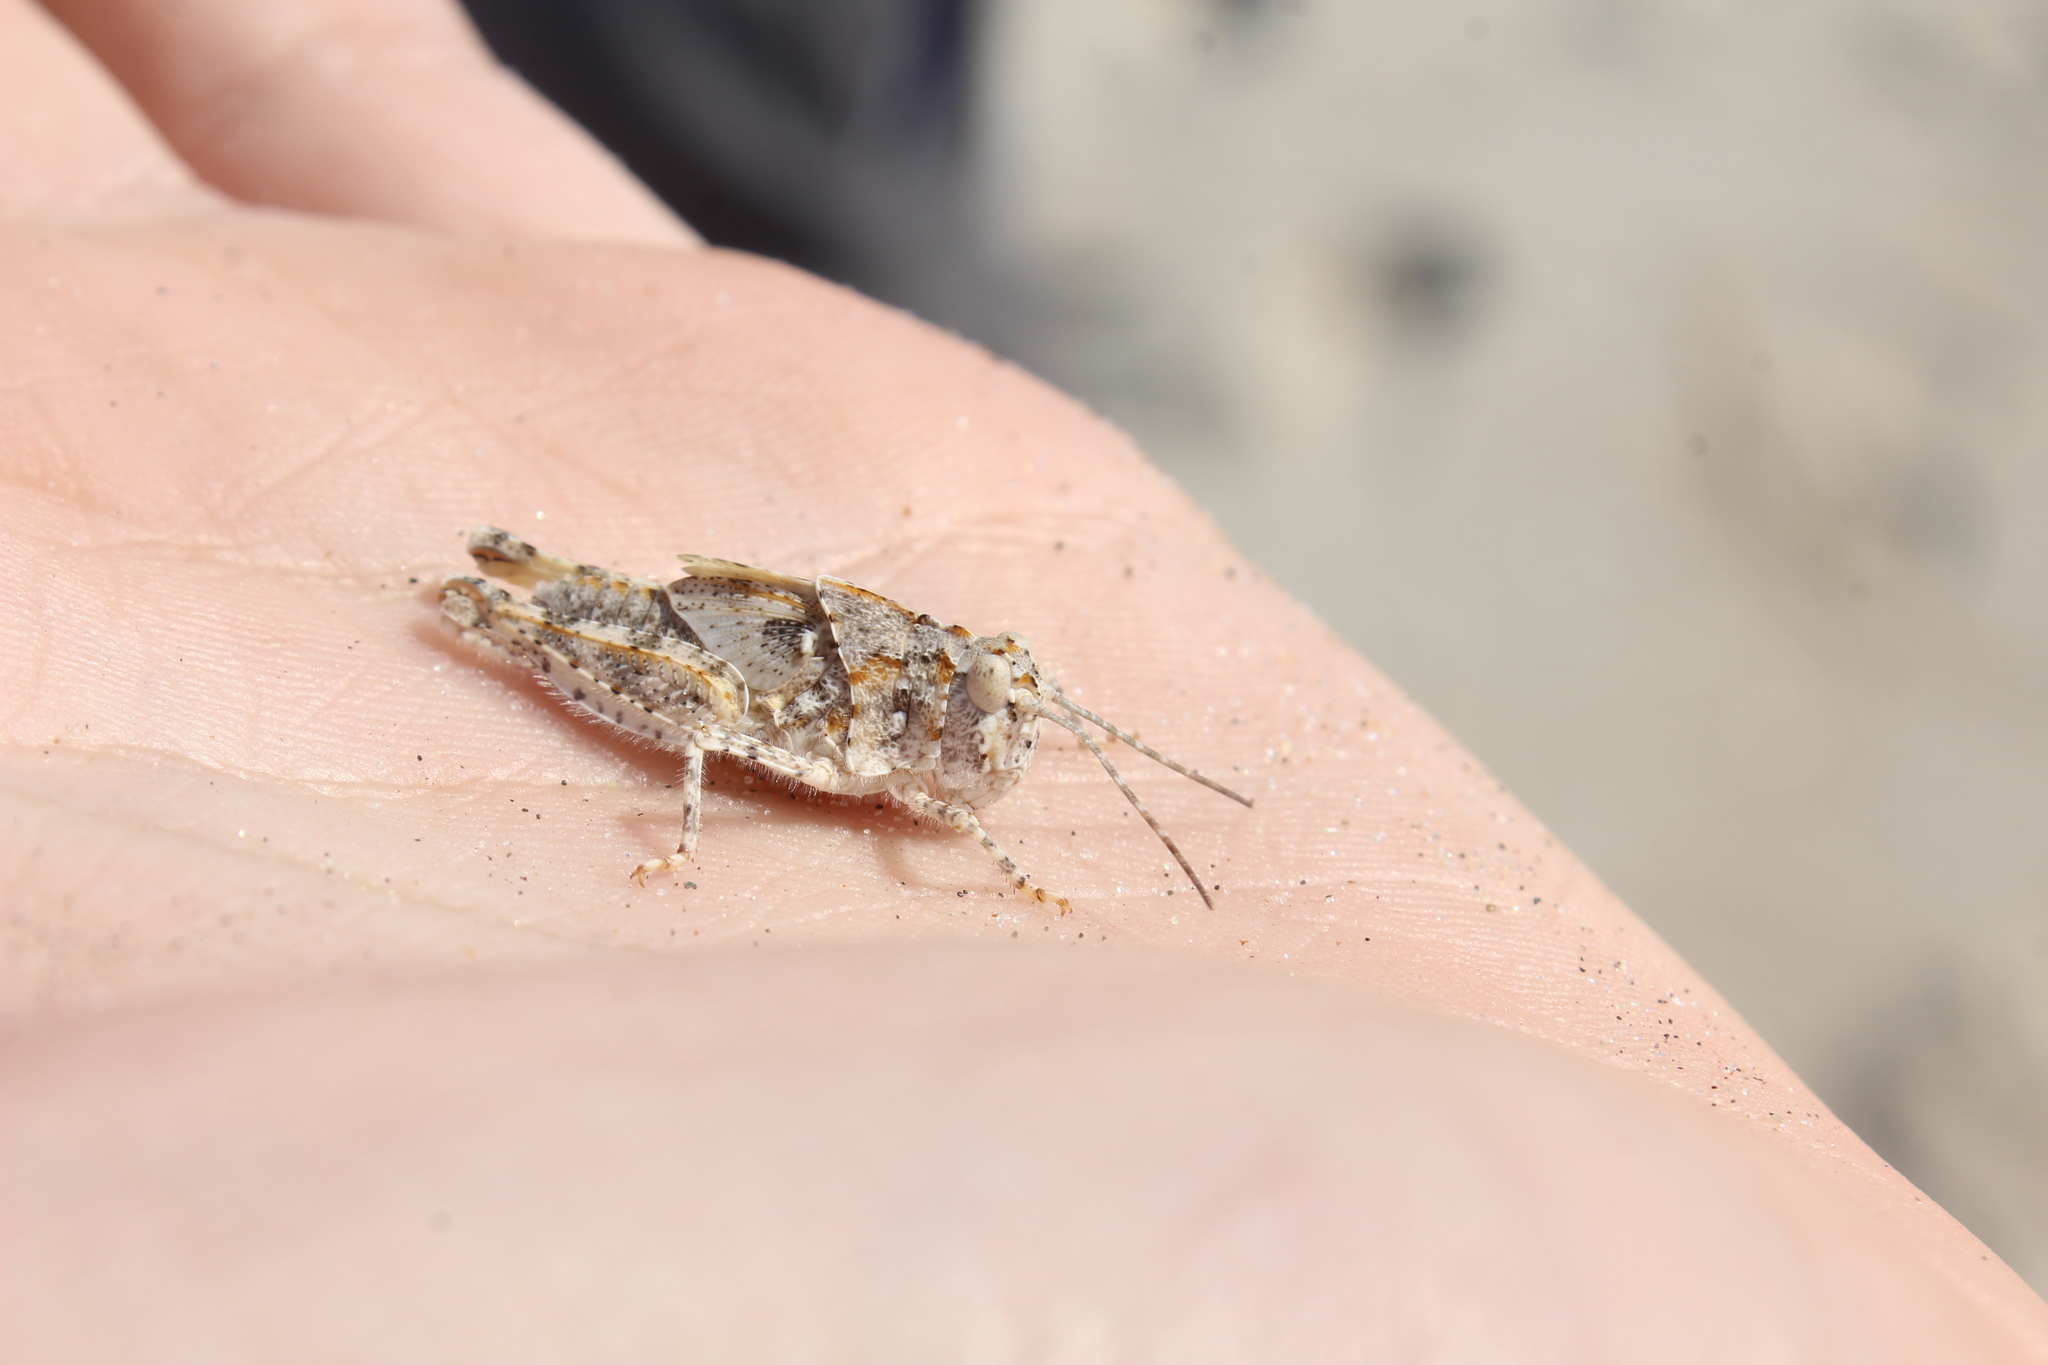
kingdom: Animalia
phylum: Arthropoda
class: Insecta
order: Orthoptera
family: Acrididae
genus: Trimerotropis
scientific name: Trimerotropis maritima
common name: Seaside locust
